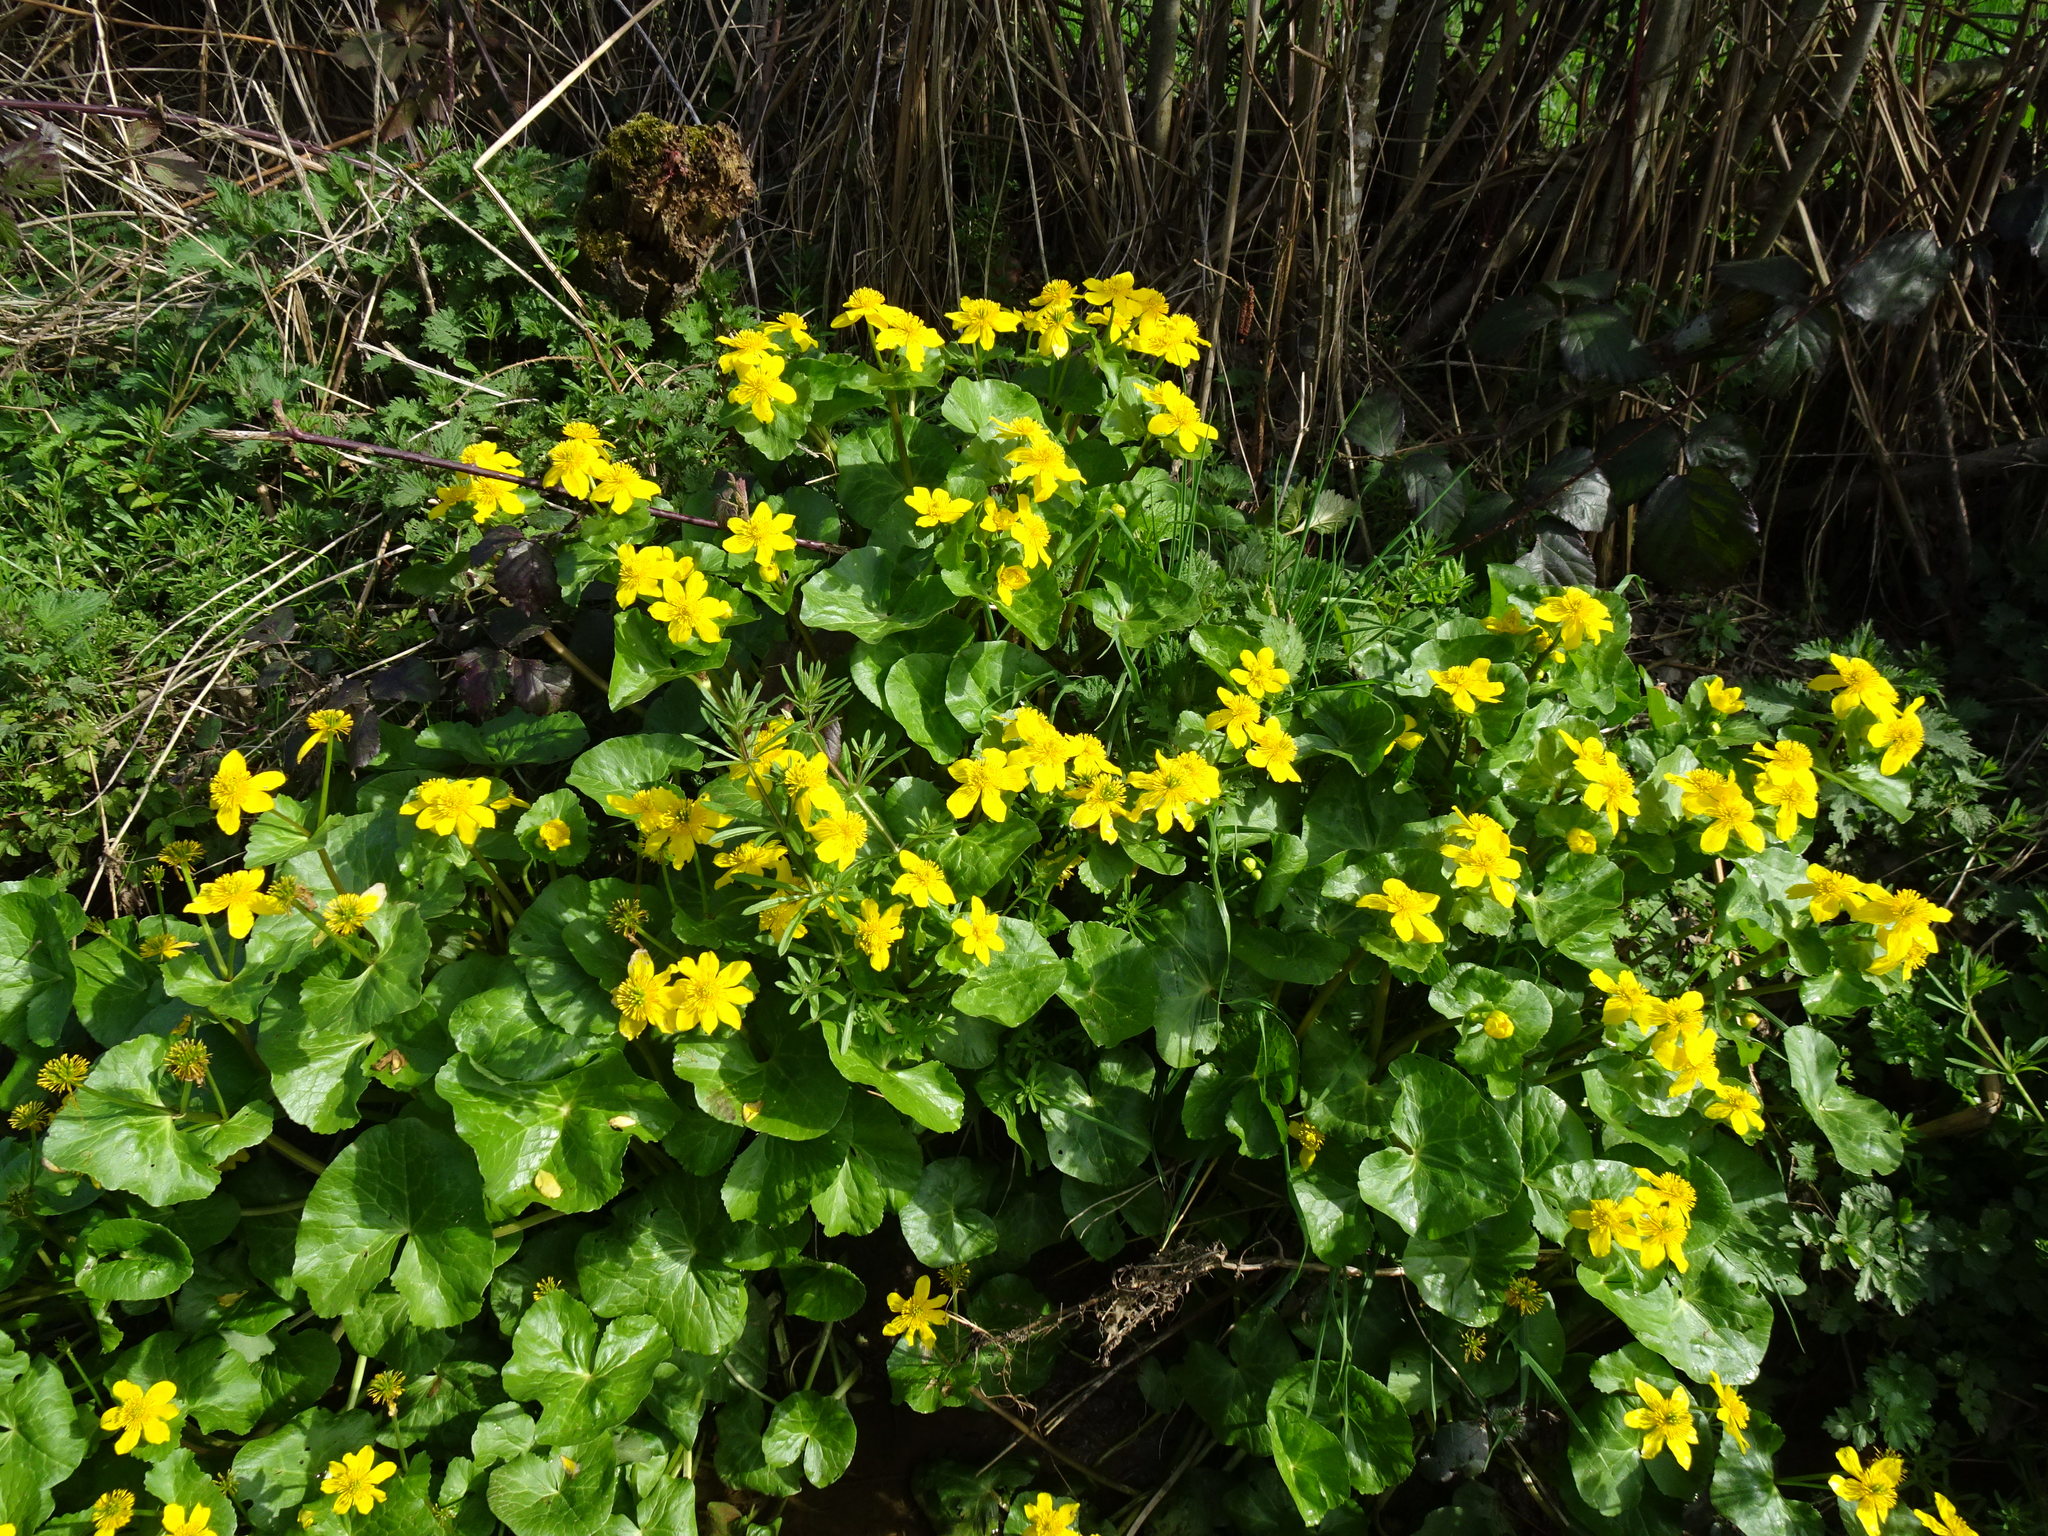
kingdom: Plantae
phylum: Tracheophyta
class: Magnoliopsida
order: Ranunculales
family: Ranunculaceae
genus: Caltha
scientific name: Caltha palustris
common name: Marsh marigold
